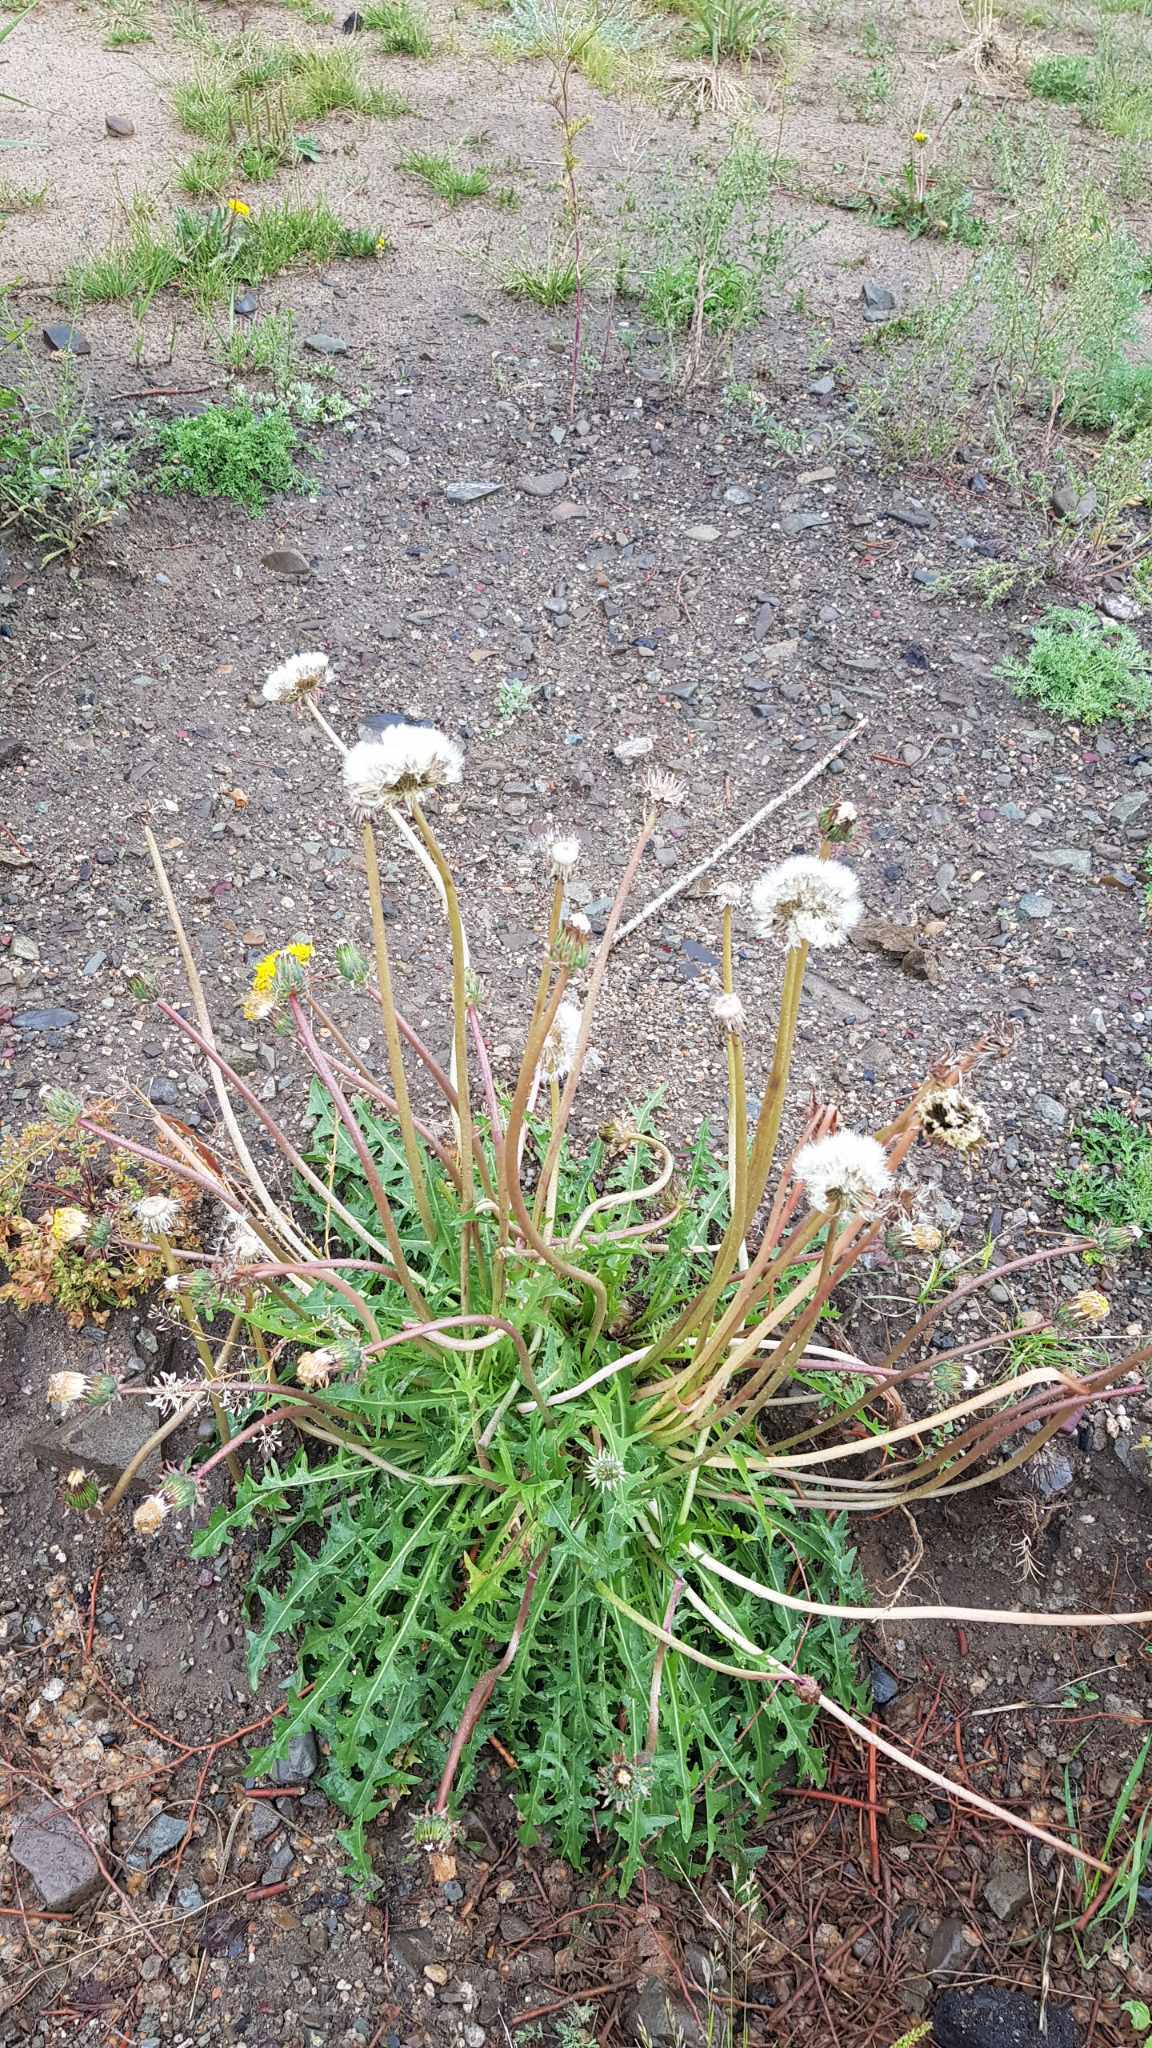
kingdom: Plantae
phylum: Tracheophyta
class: Magnoliopsida
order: Asterales
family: Asteraceae
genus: Taraxacum
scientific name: Taraxacum officinale
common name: Common dandelion
